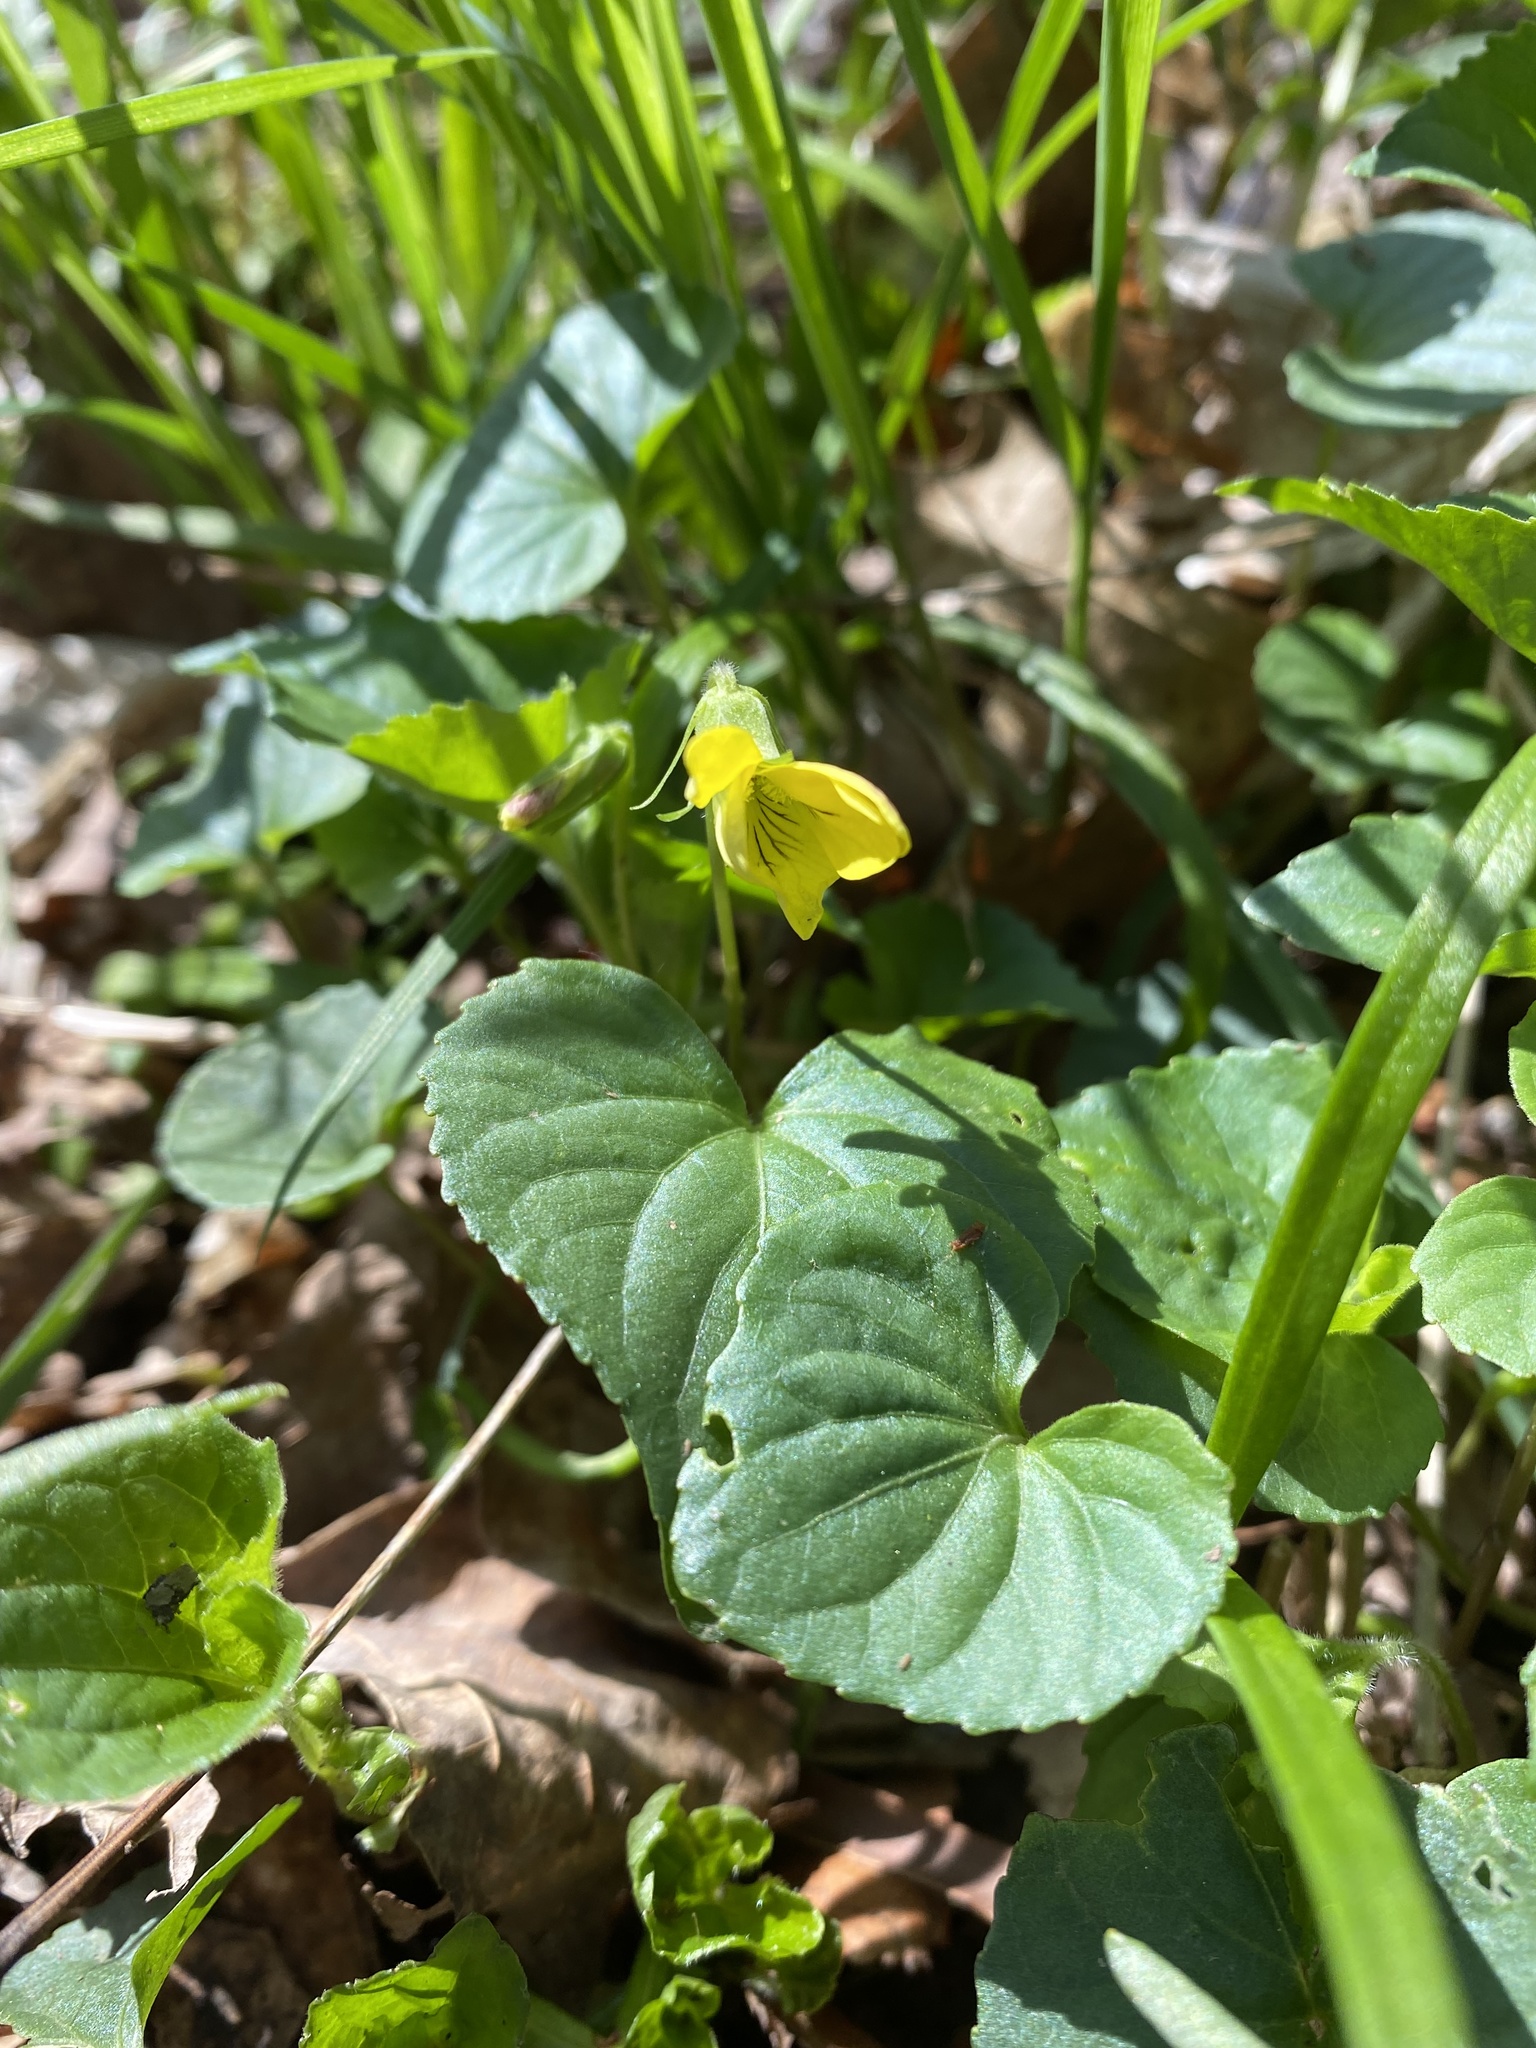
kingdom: Plantae
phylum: Tracheophyta
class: Magnoliopsida
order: Malpighiales
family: Violaceae
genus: Viola
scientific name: Viola eriocarpa
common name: Smooth yellow violet
